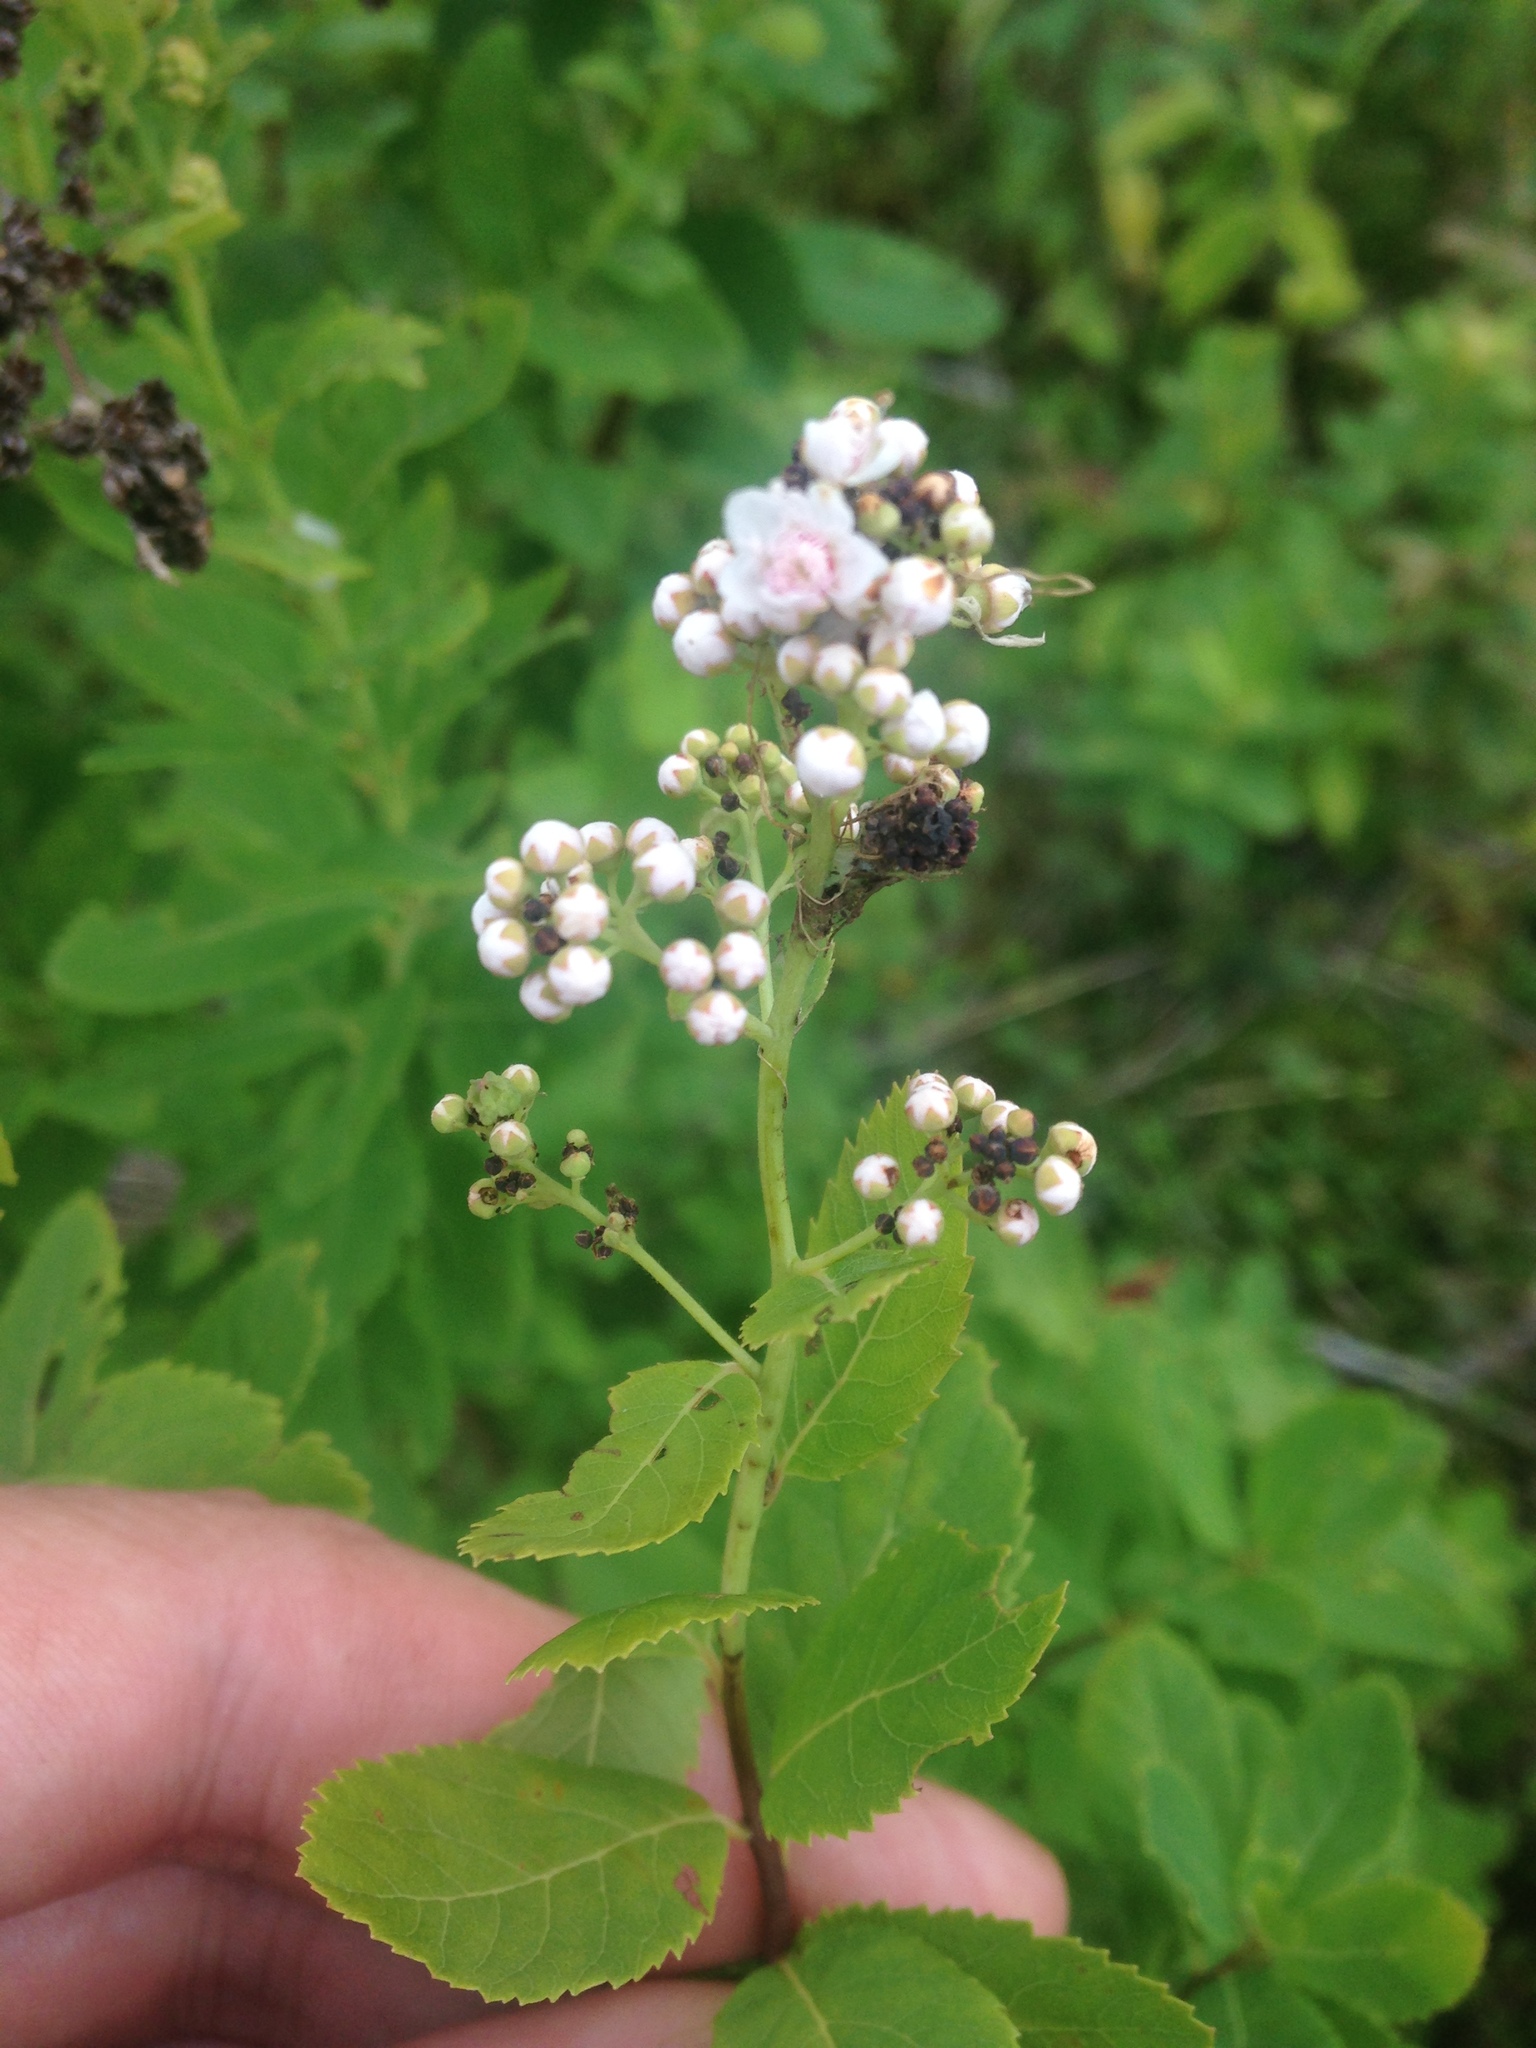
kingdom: Plantae
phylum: Tracheophyta
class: Magnoliopsida
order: Rosales
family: Rosaceae
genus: Spiraea
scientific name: Spiraea alba
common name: Pale bridewort
